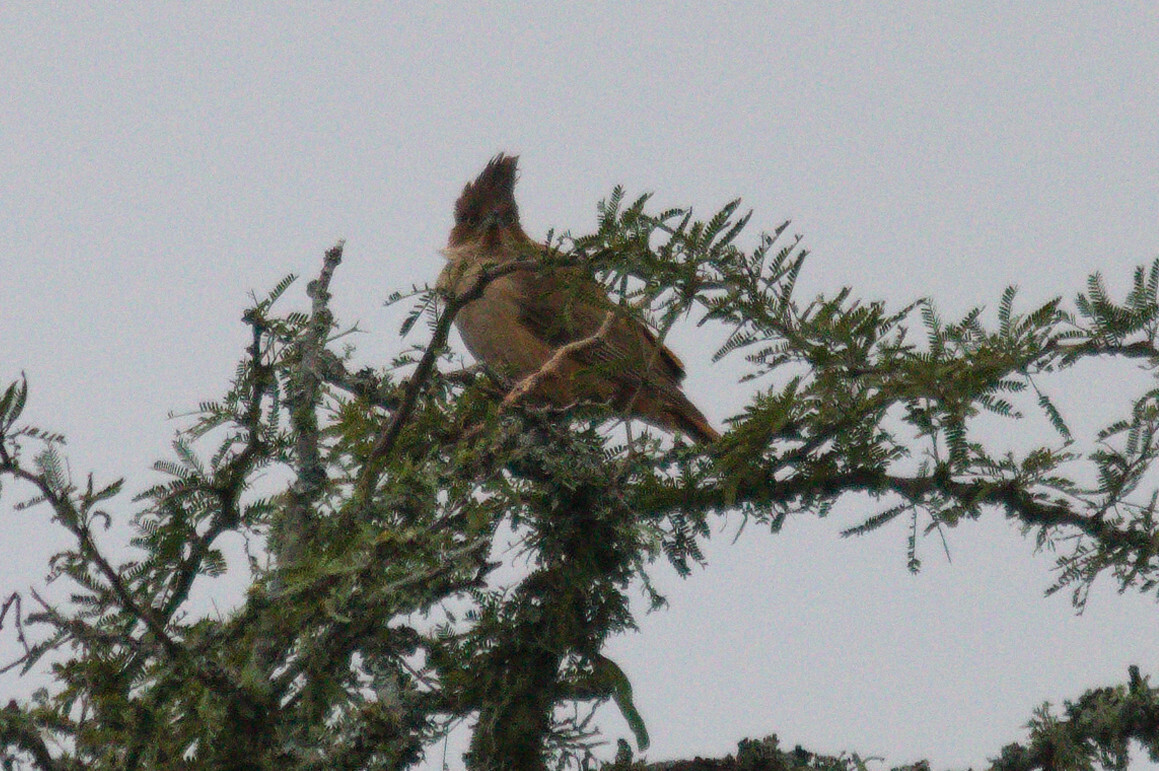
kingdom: Animalia
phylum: Chordata
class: Aves
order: Passeriformes
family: Furnariidae
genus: Pseudoseisura
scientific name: Pseudoseisura lophotes
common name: Brown cacholote
